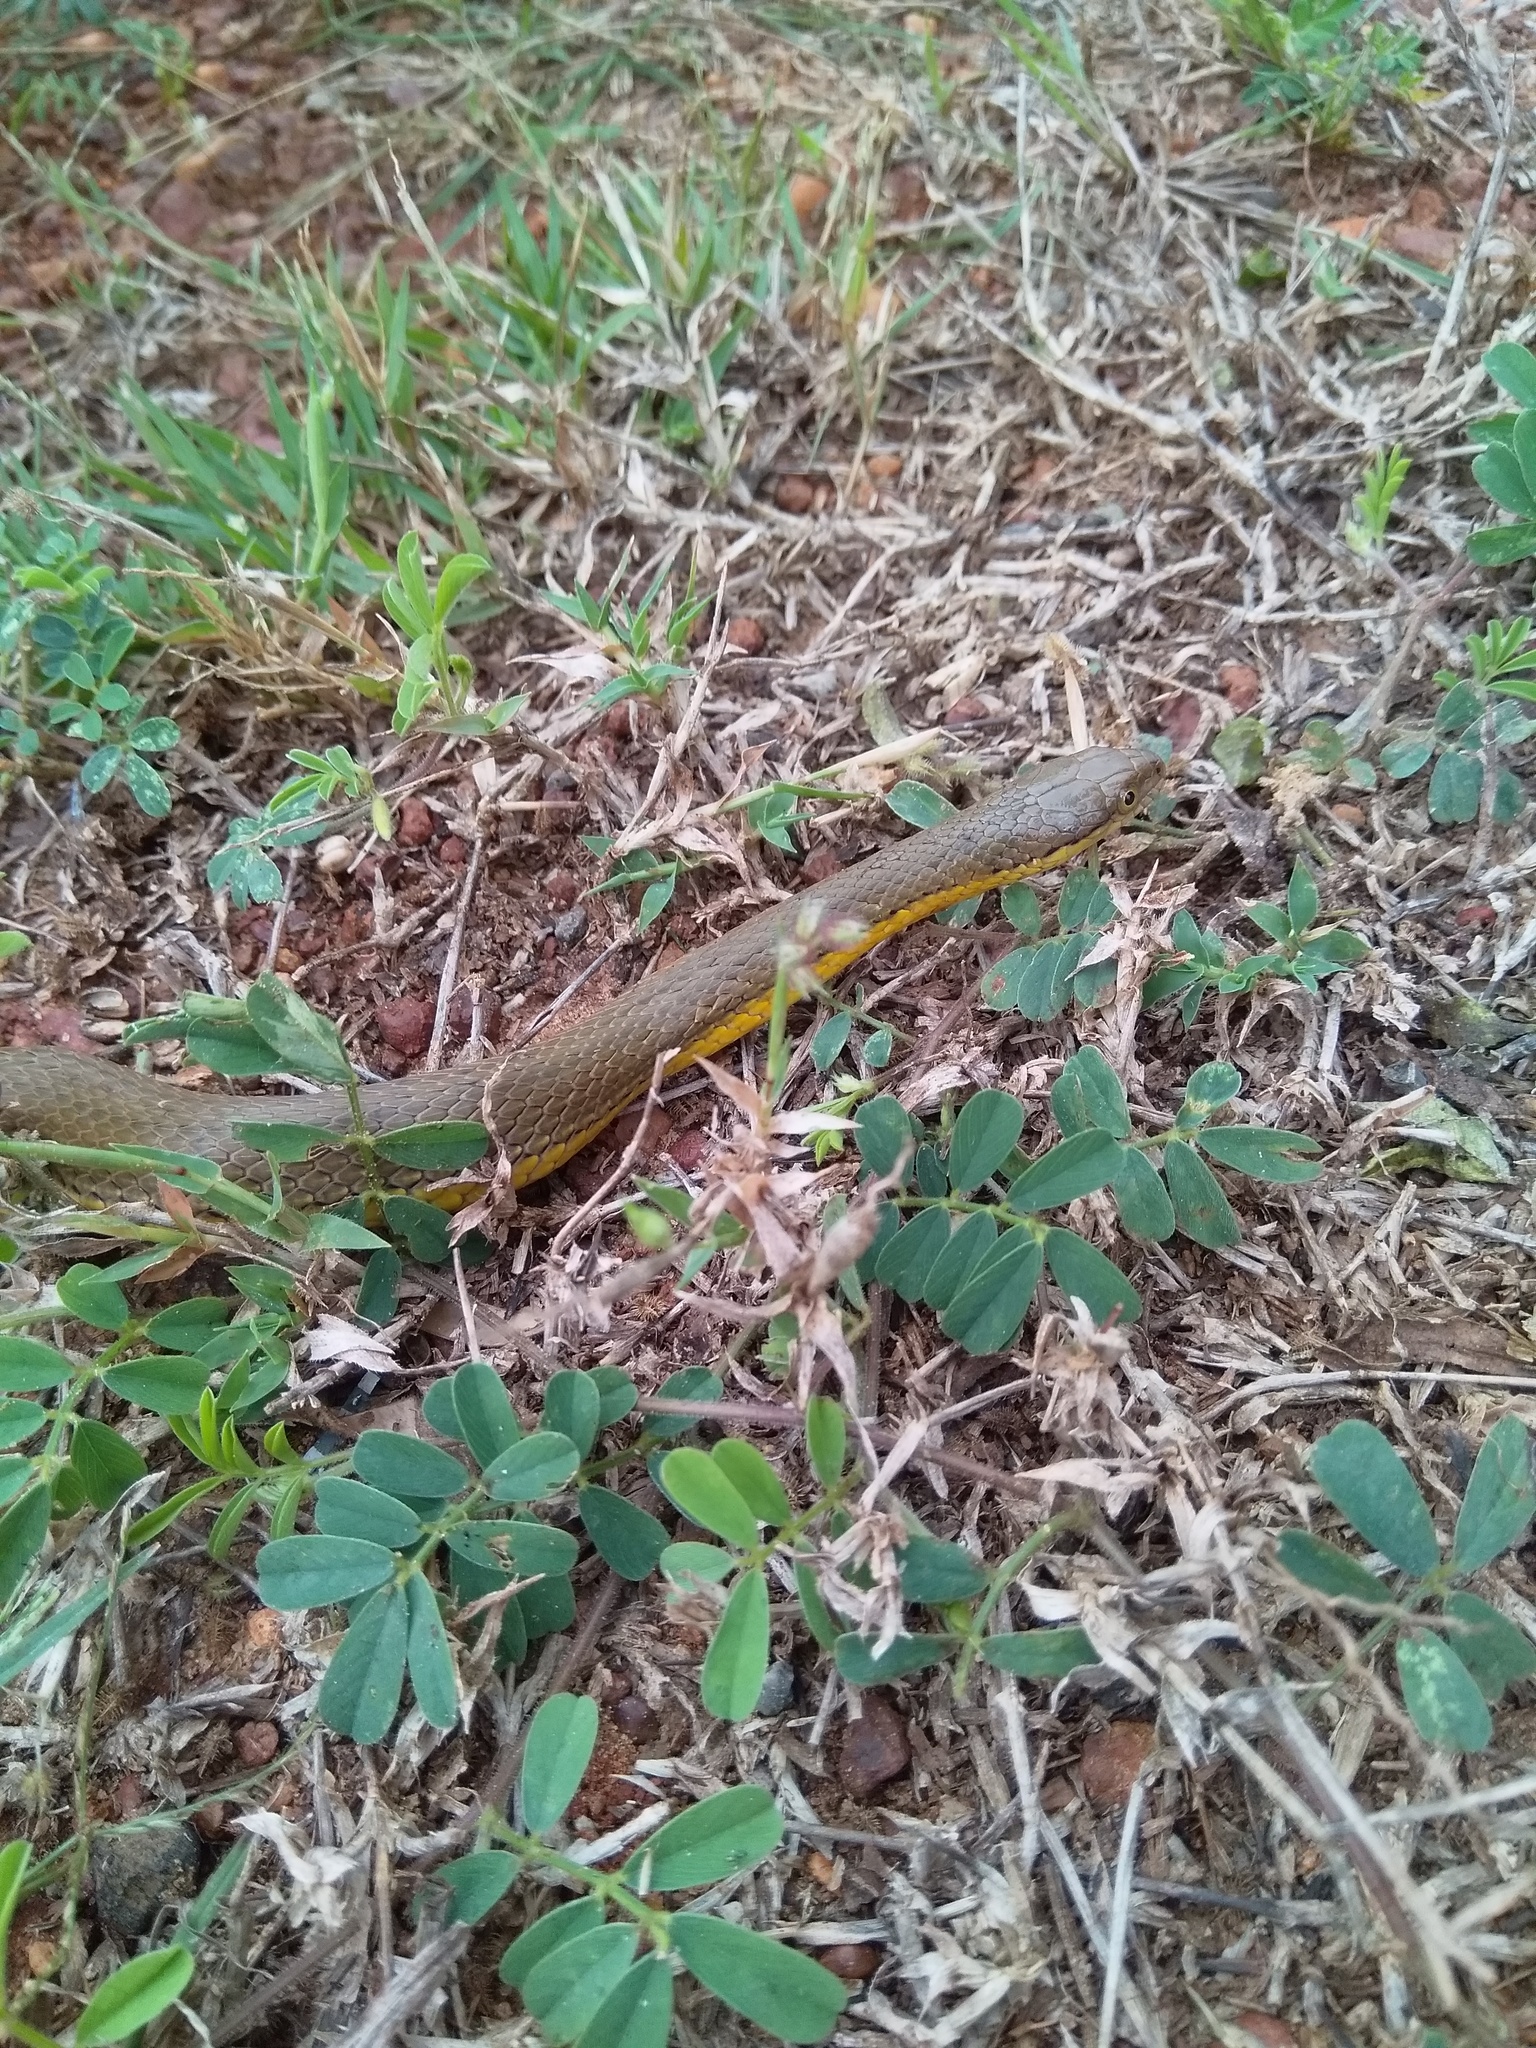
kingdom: Animalia
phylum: Chordata
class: Squamata
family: Colubridae
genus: Atretium
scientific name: Atretium schistosum
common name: Olive keelback wart snake
